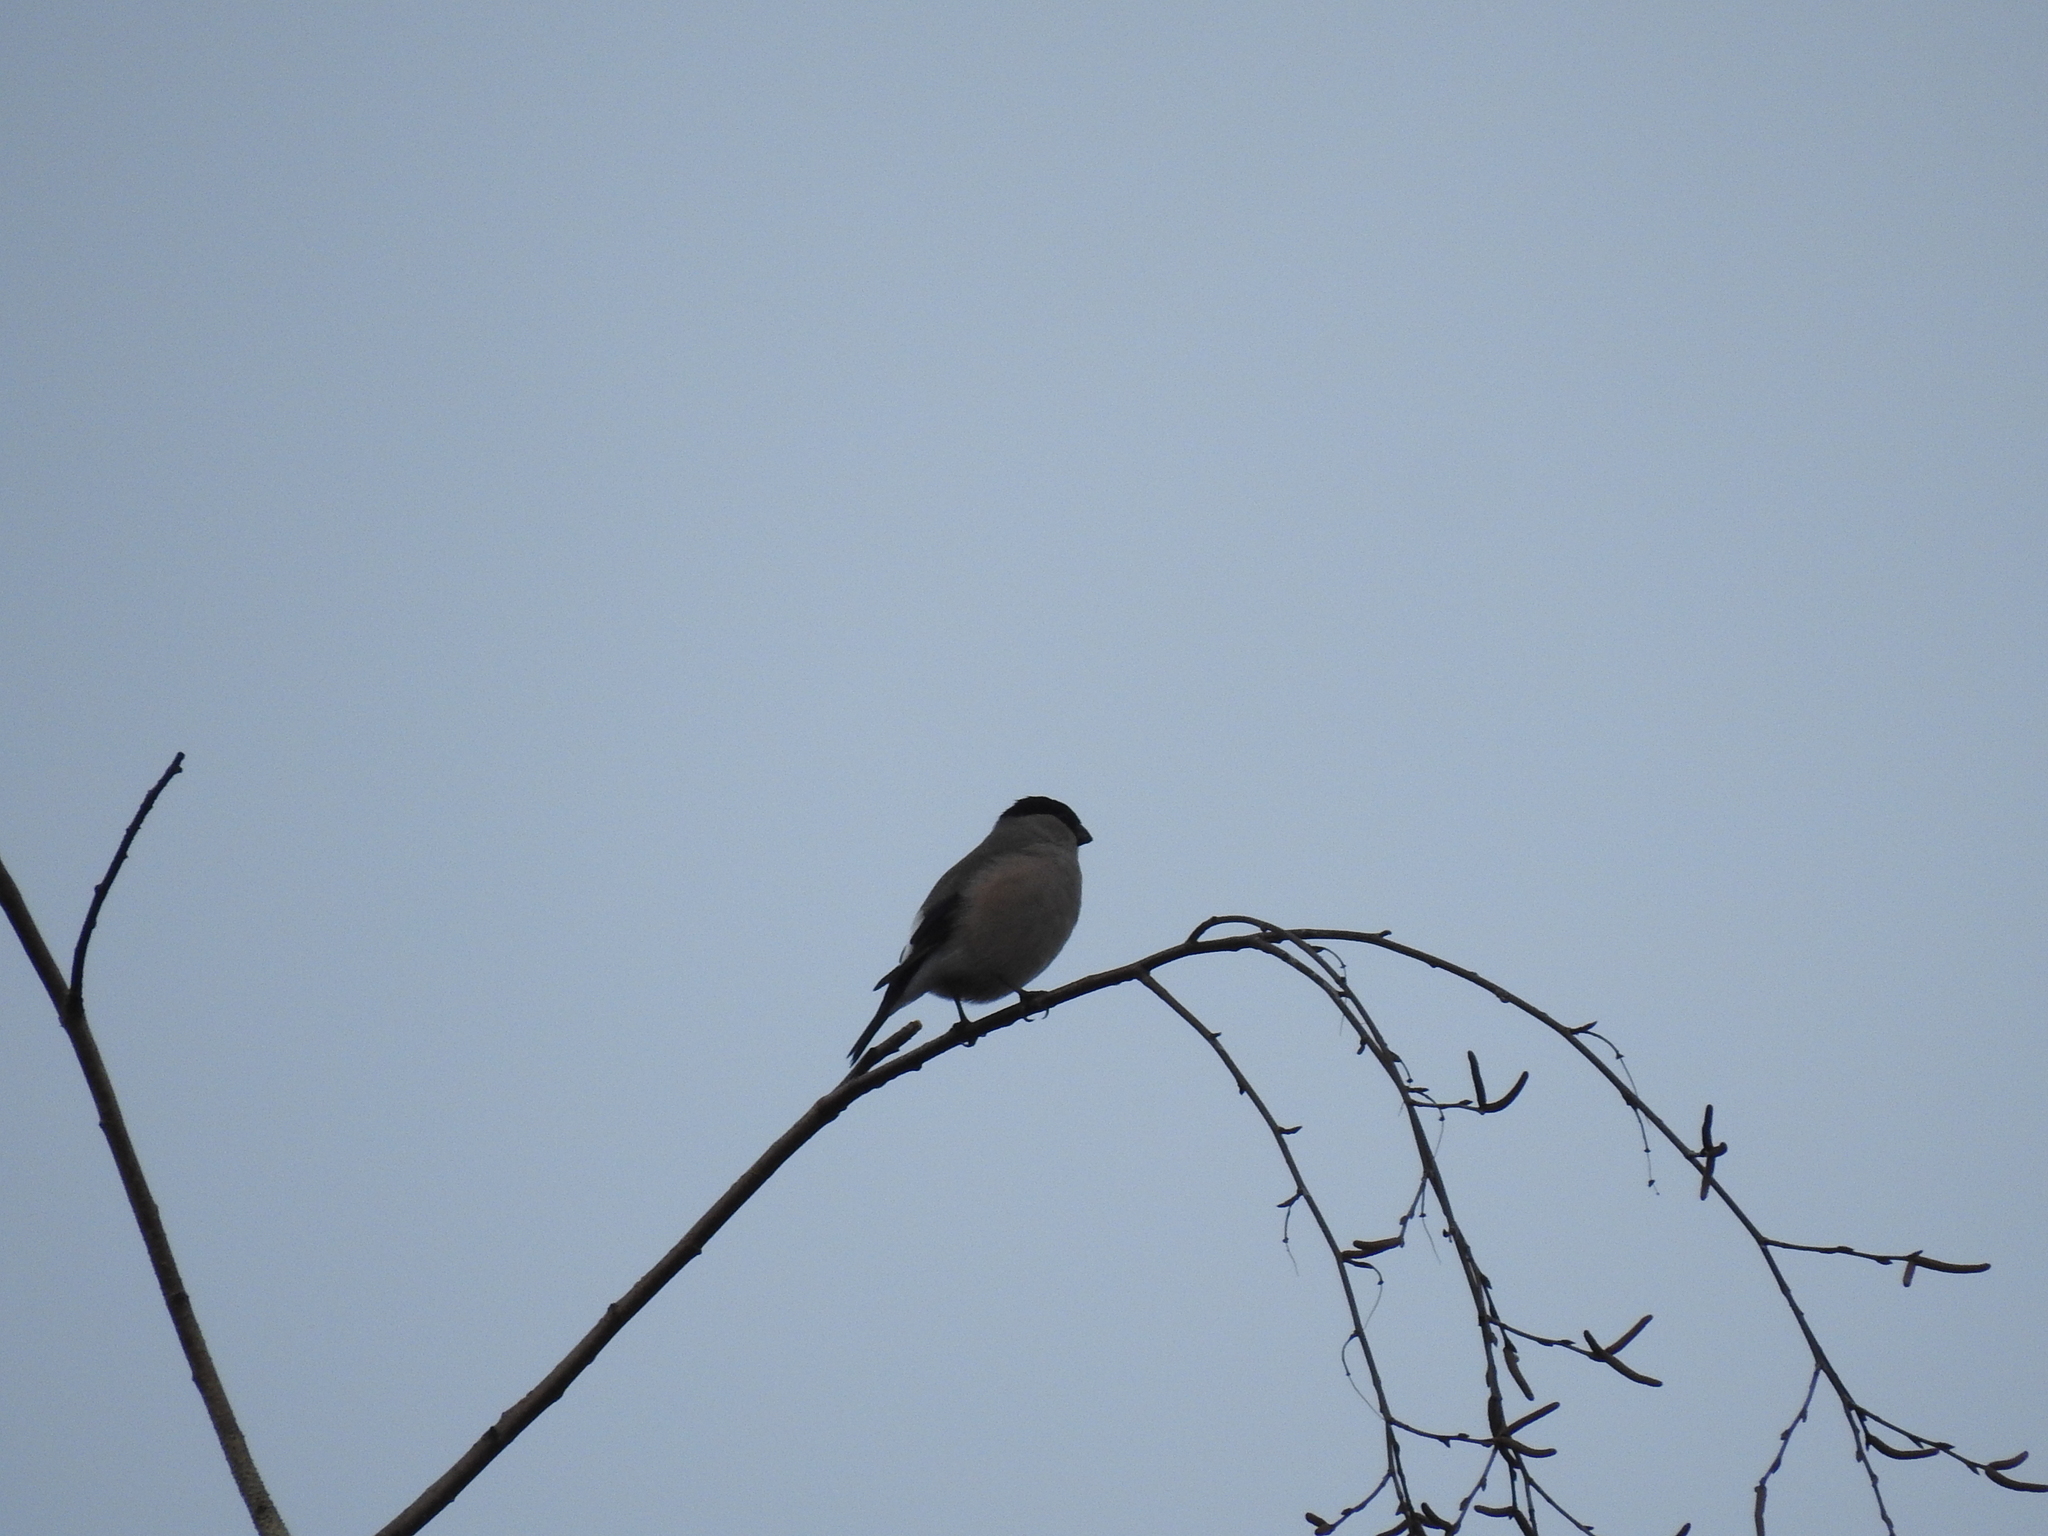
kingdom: Animalia
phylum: Chordata
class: Aves
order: Passeriformes
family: Fringillidae
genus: Pyrrhula
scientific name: Pyrrhula pyrrhula
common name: Eurasian bullfinch
